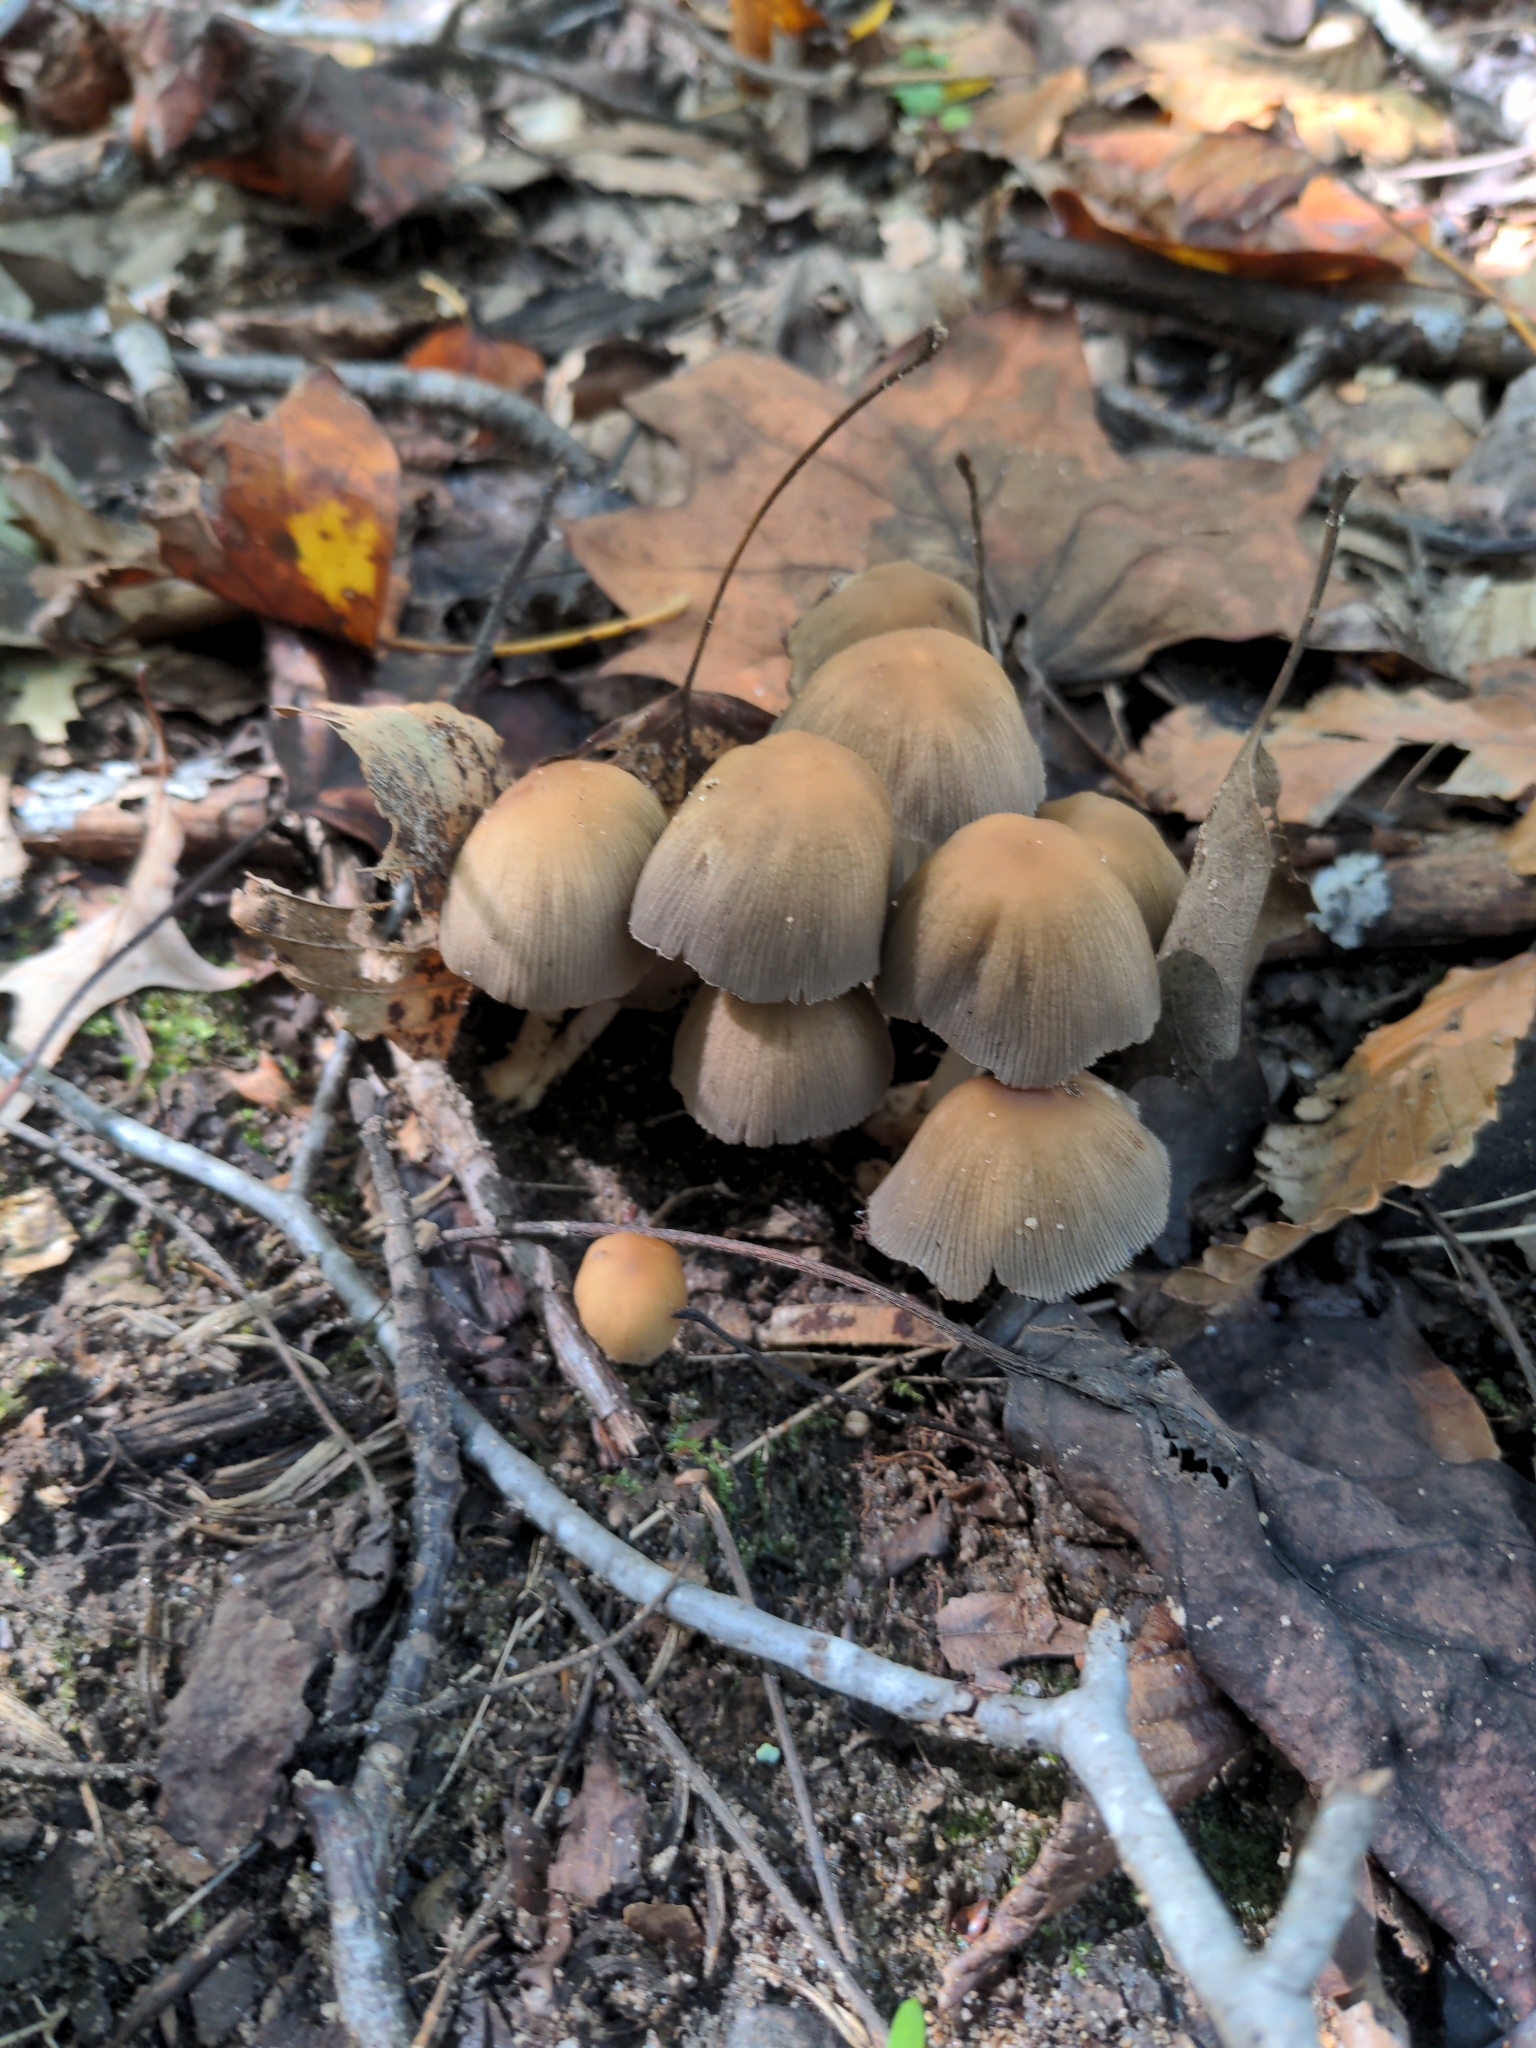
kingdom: Fungi
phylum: Basidiomycota
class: Agaricomycetes
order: Agaricales
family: Psathyrellaceae
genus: Coprinellus
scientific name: Coprinellus micaceus
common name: Glistening ink-cap
